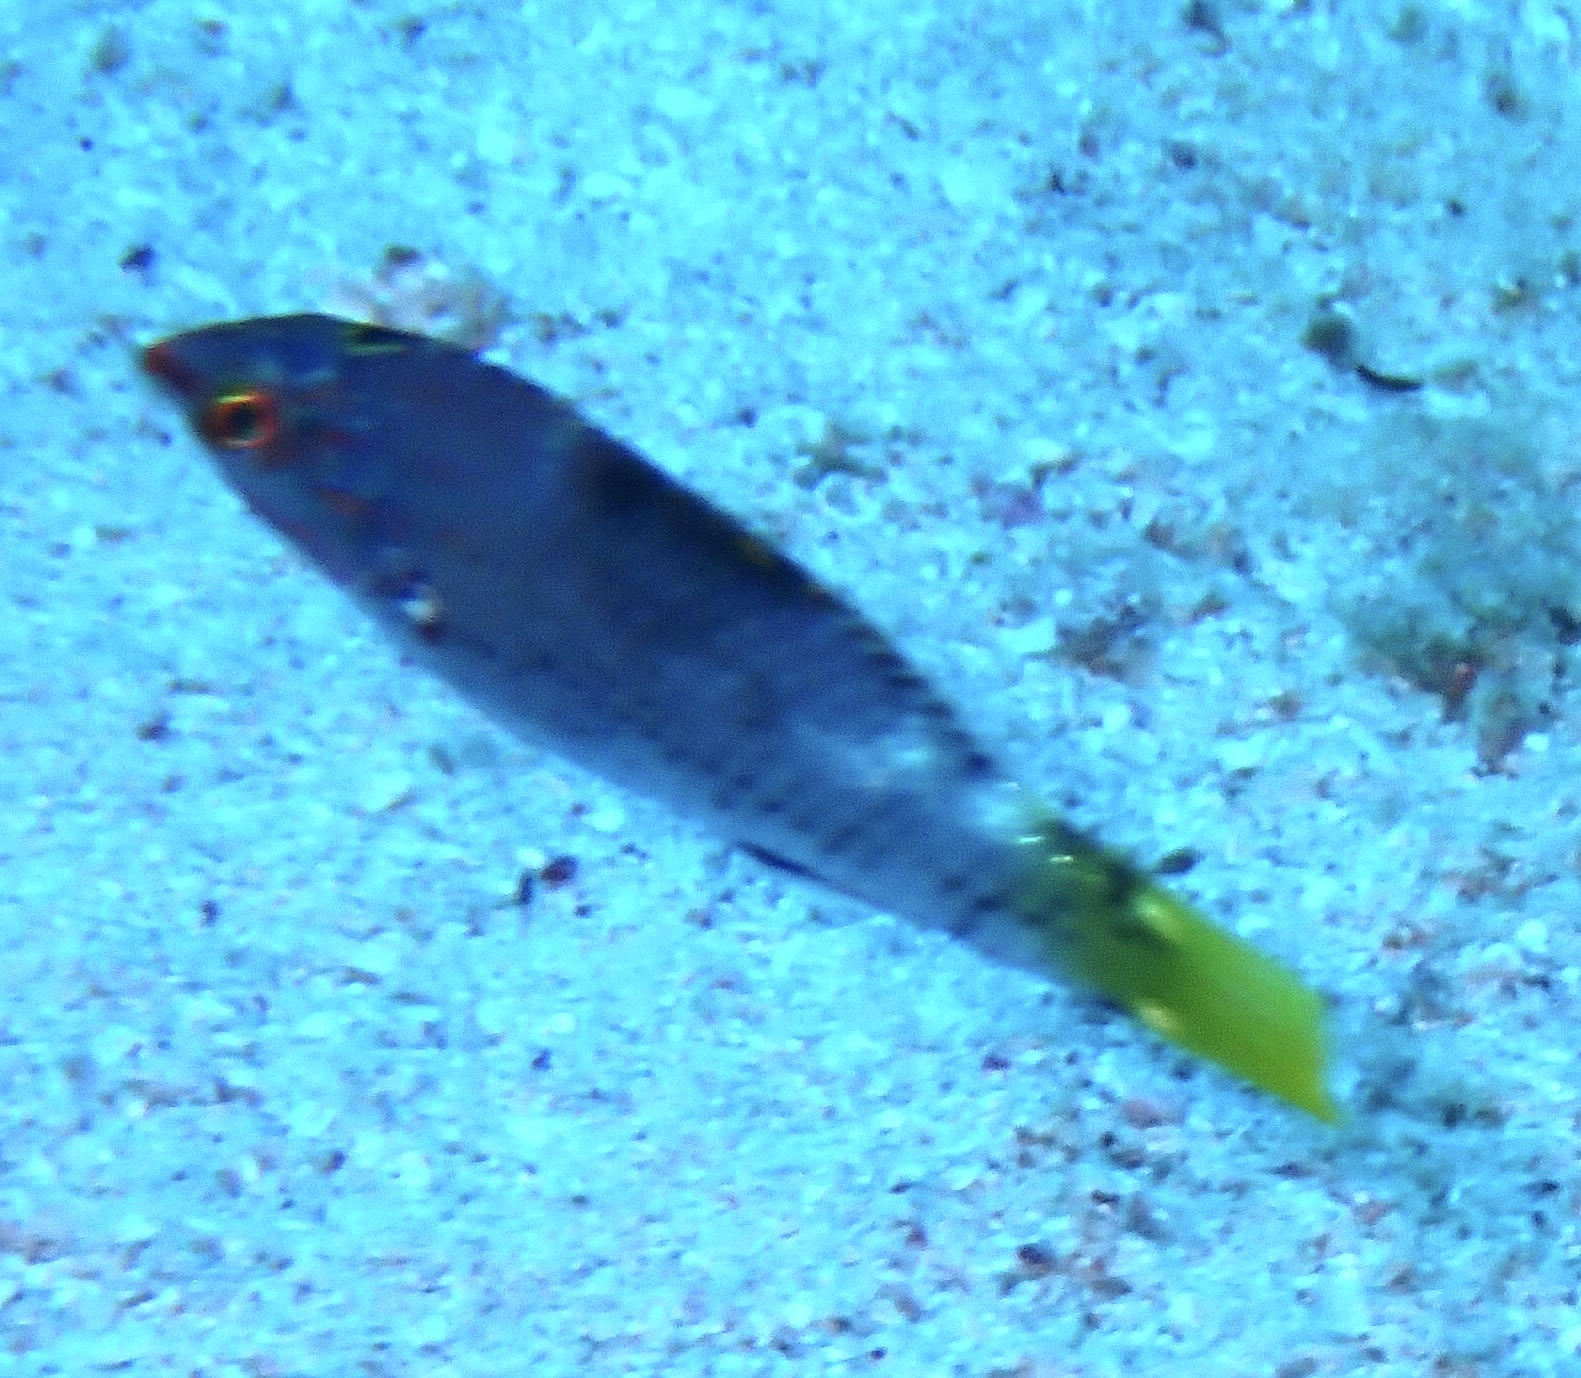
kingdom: Animalia
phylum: Chordata
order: Perciformes
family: Labridae
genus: Halichoeres
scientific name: Halichoeres hortulanus
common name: Checkerboard wrasse
